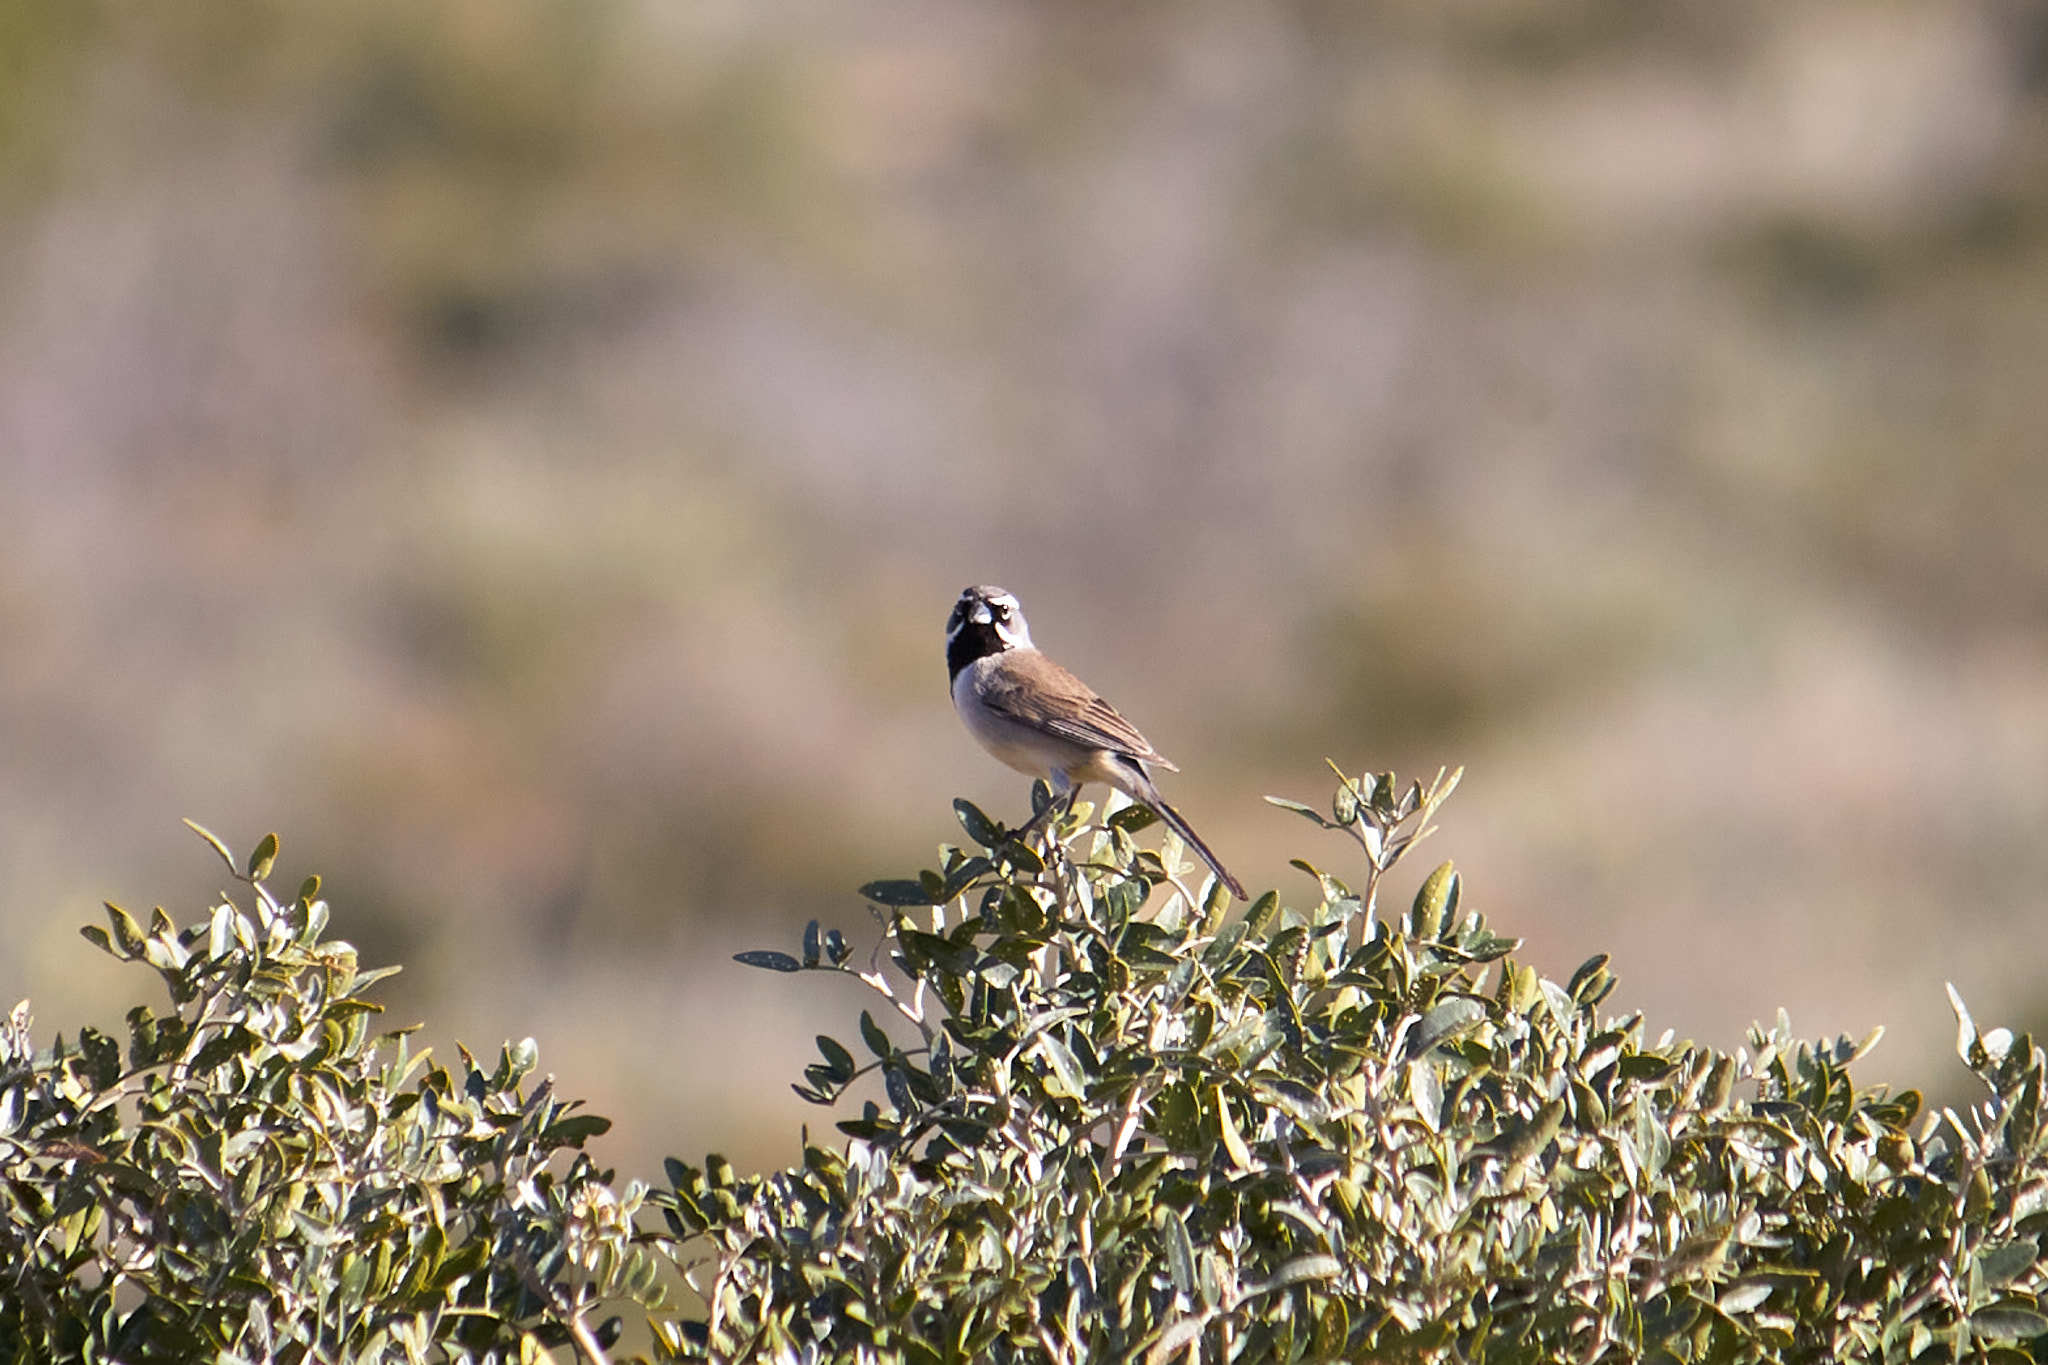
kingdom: Animalia
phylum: Chordata
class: Aves
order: Passeriformes
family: Passerellidae
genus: Amphispiza
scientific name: Amphispiza bilineata
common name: Black-throated sparrow
